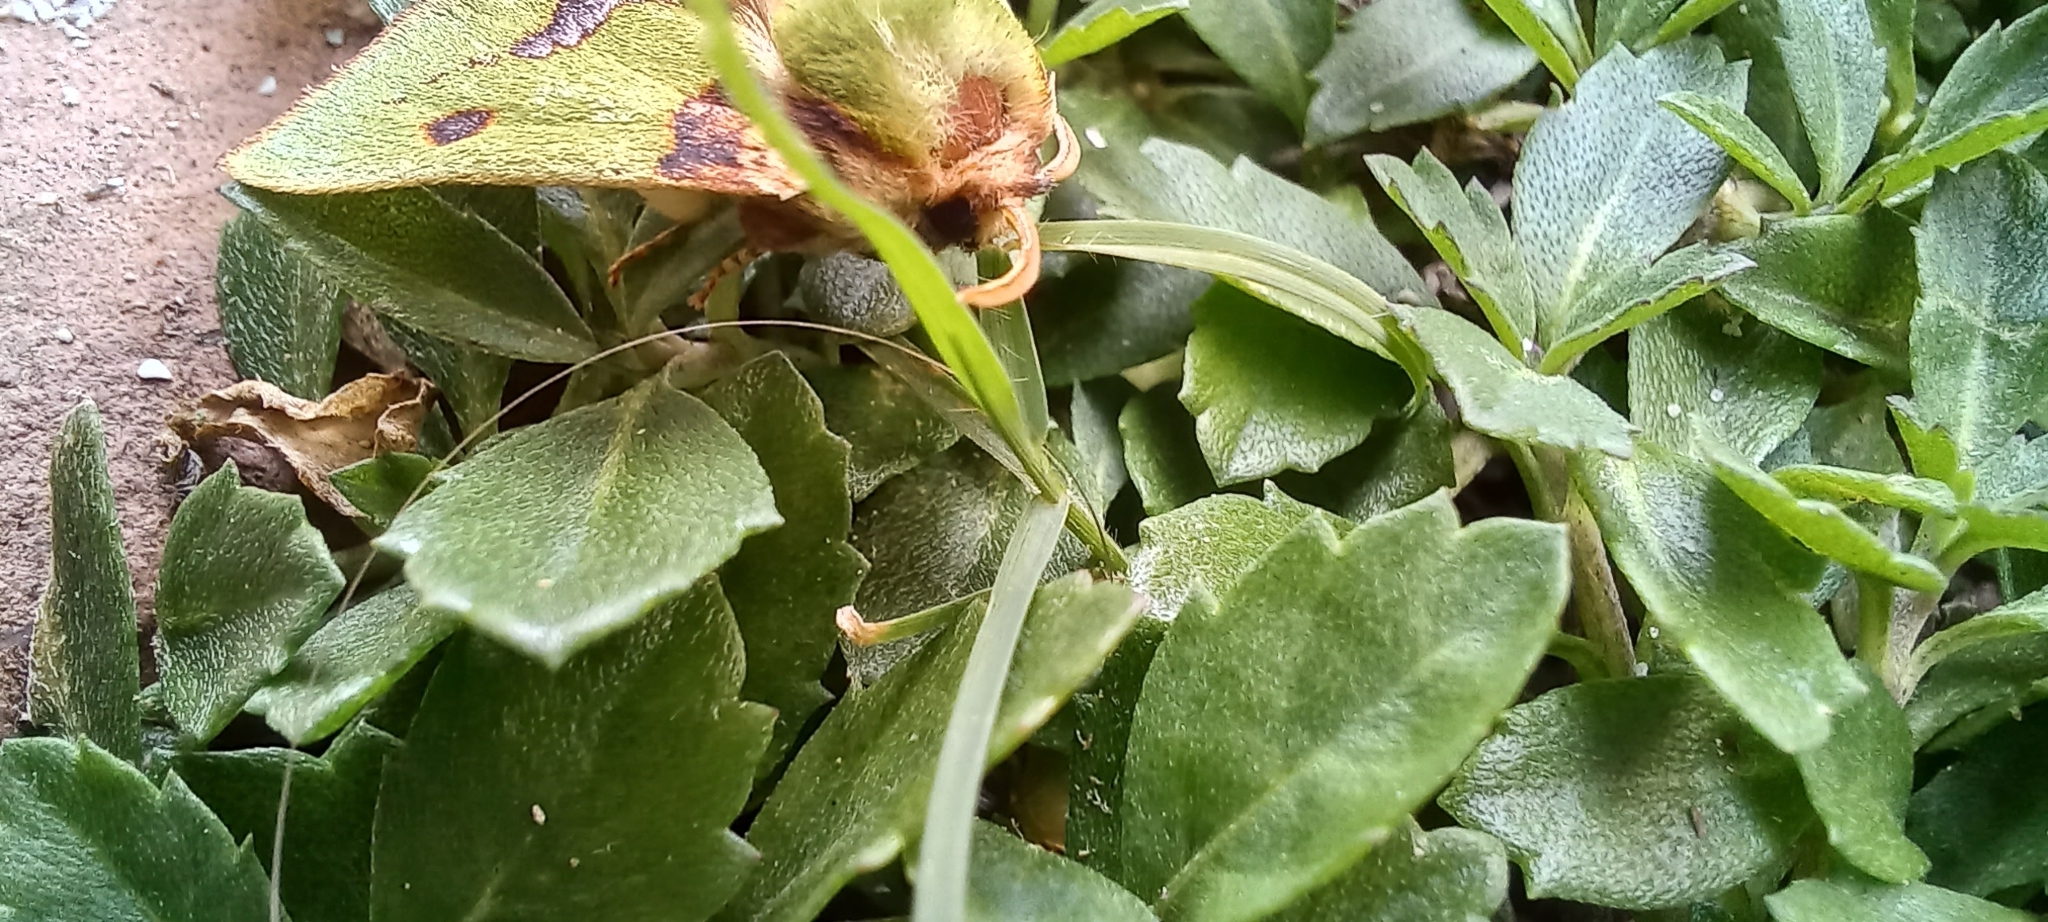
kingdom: Animalia
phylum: Arthropoda
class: Insecta
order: Lepidoptera
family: Limacodidae
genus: Parasa
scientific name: Parasa gemmans
